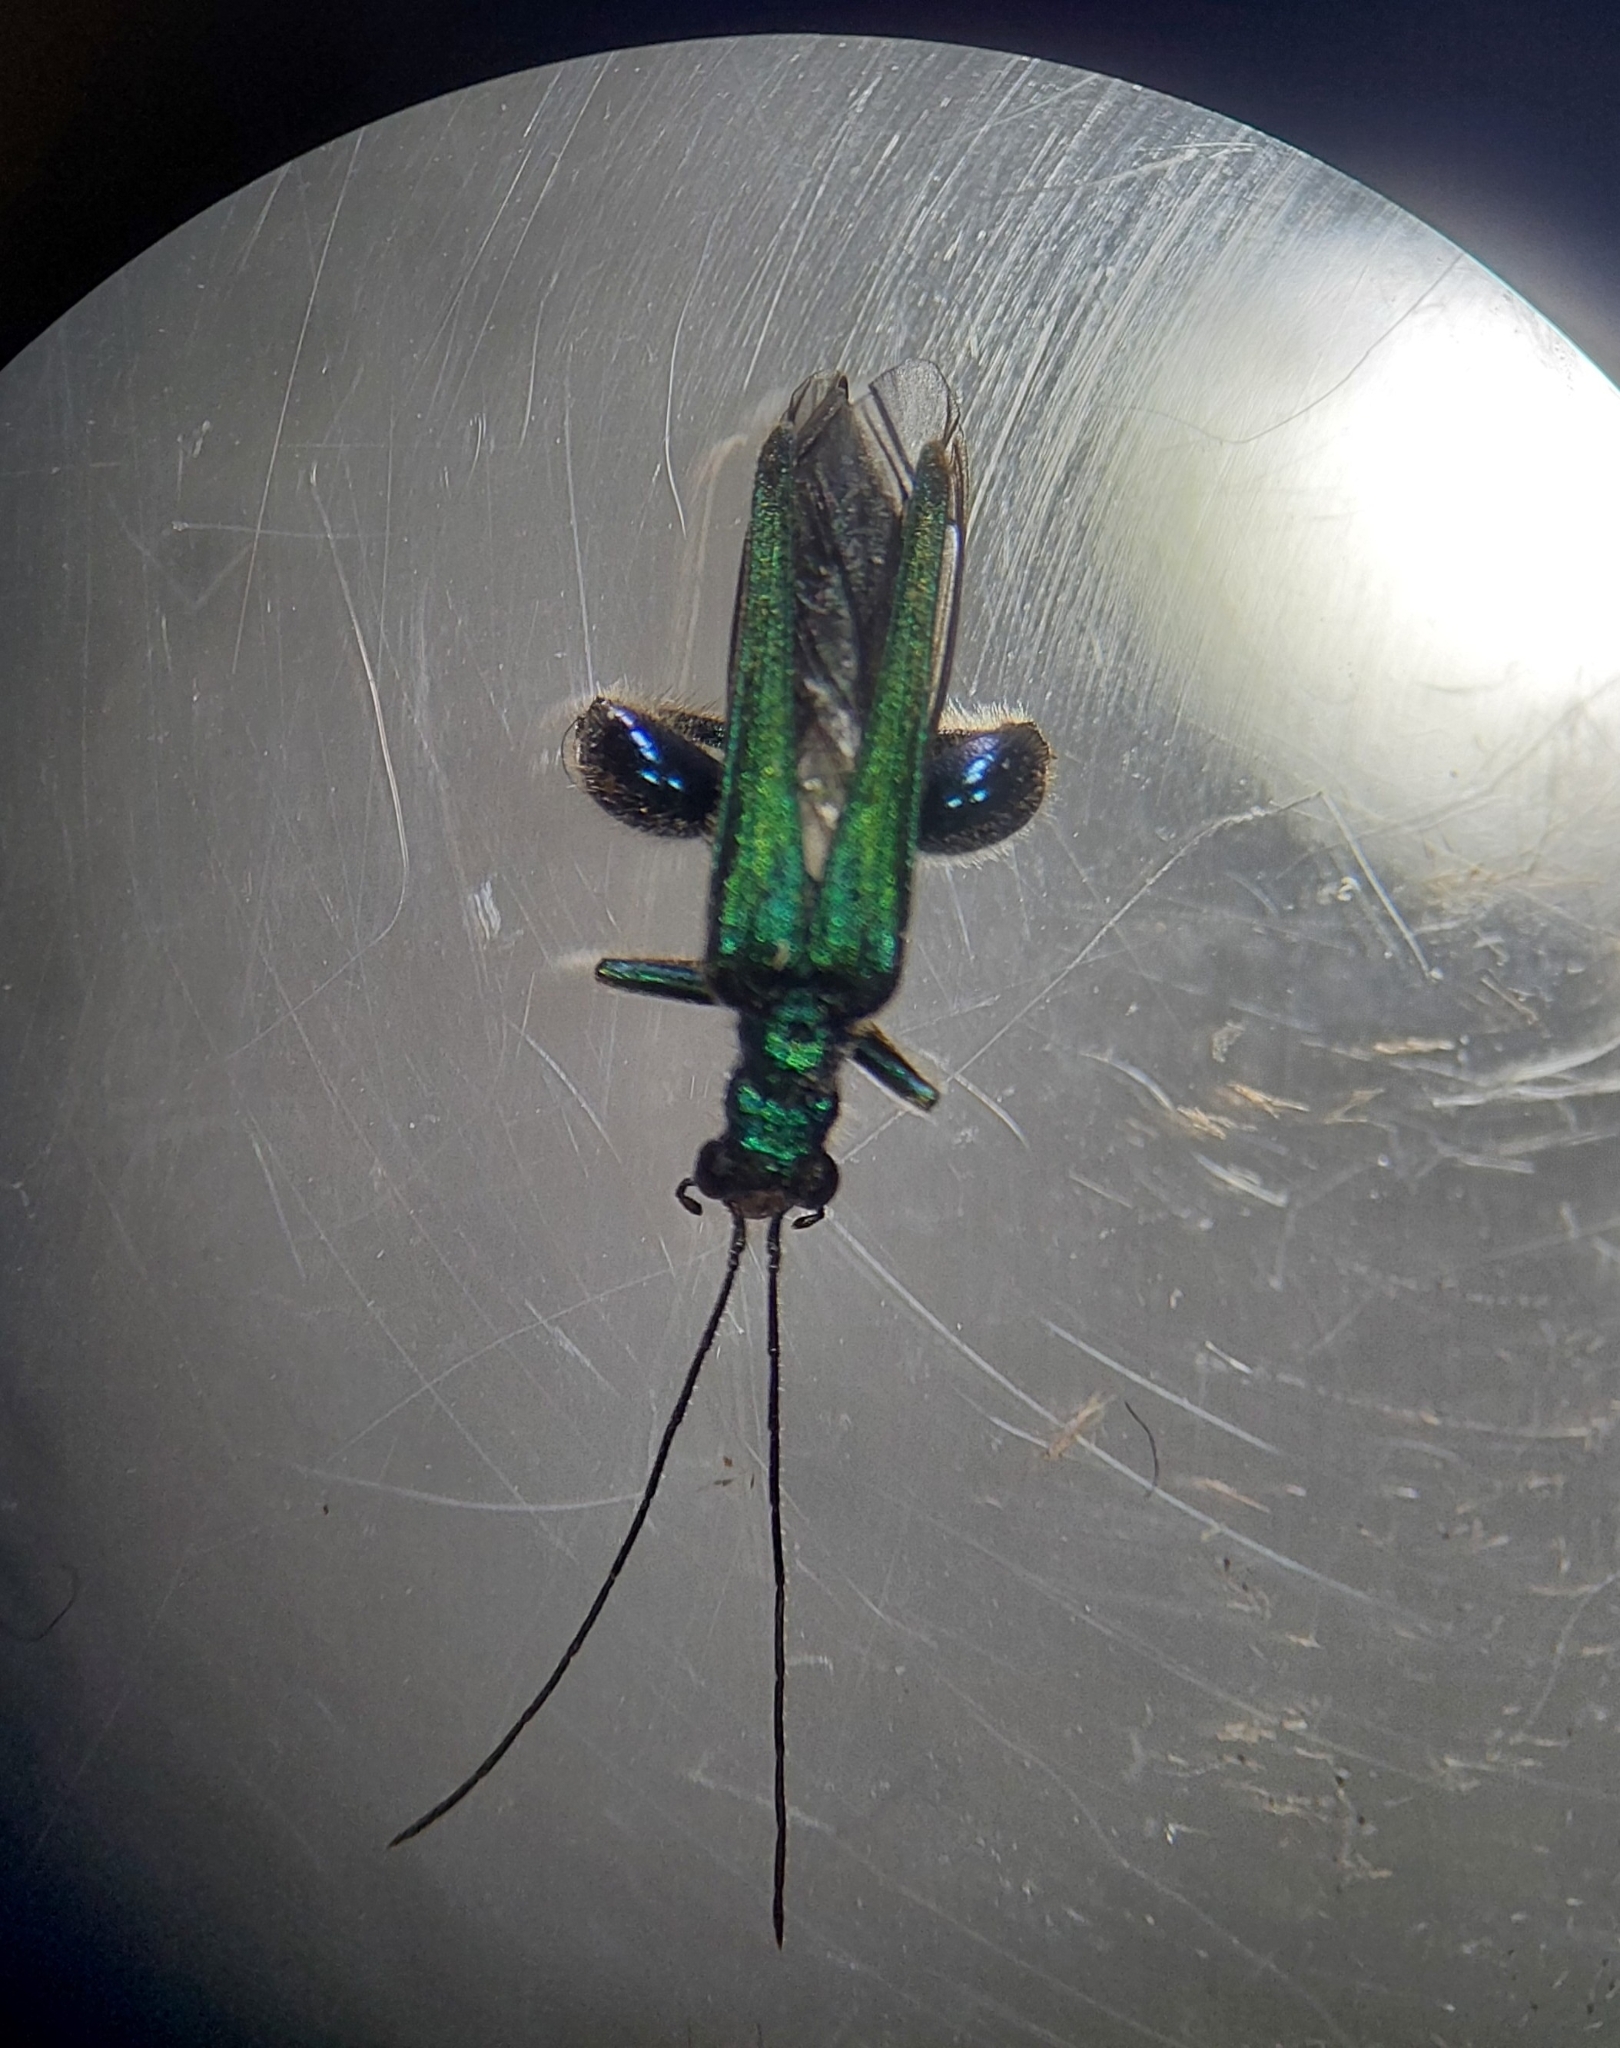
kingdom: Animalia
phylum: Arthropoda
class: Insecta
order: Coleoptera
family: Oedemeridae
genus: Oedemera
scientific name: Oedemera nobilis
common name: Swollen-thighed beetle
